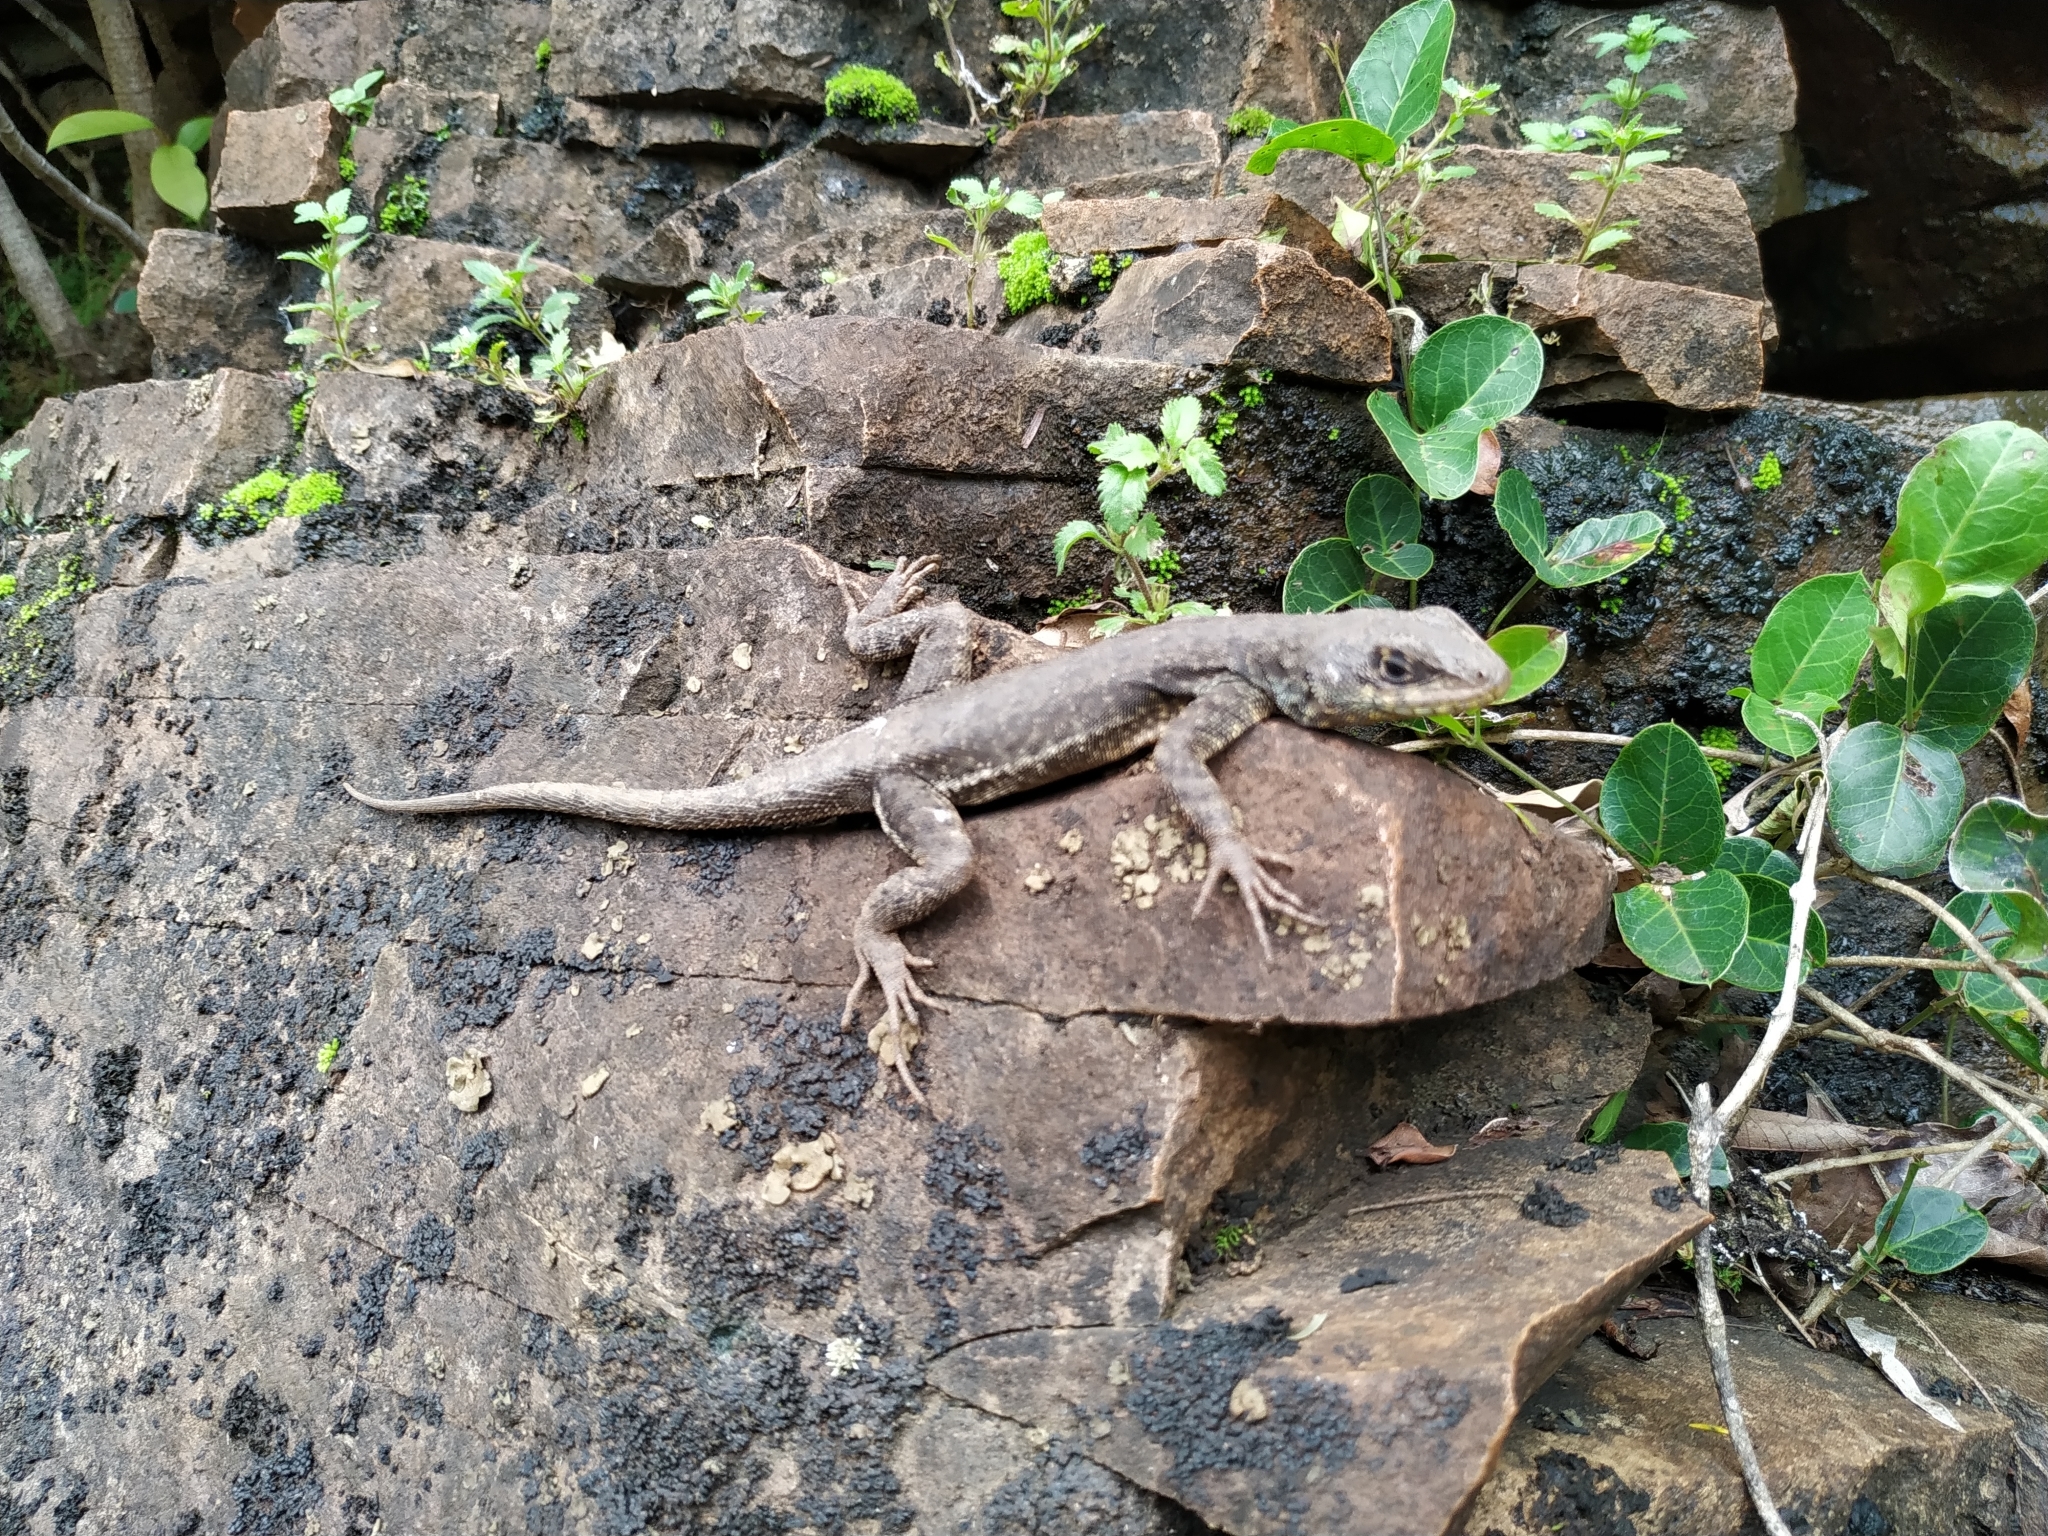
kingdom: Animalia
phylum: Chordata
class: Squamata
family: Tropiduridae
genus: Tropidurus
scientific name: Tropidurus torquatus
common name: Amazon lava lizard
